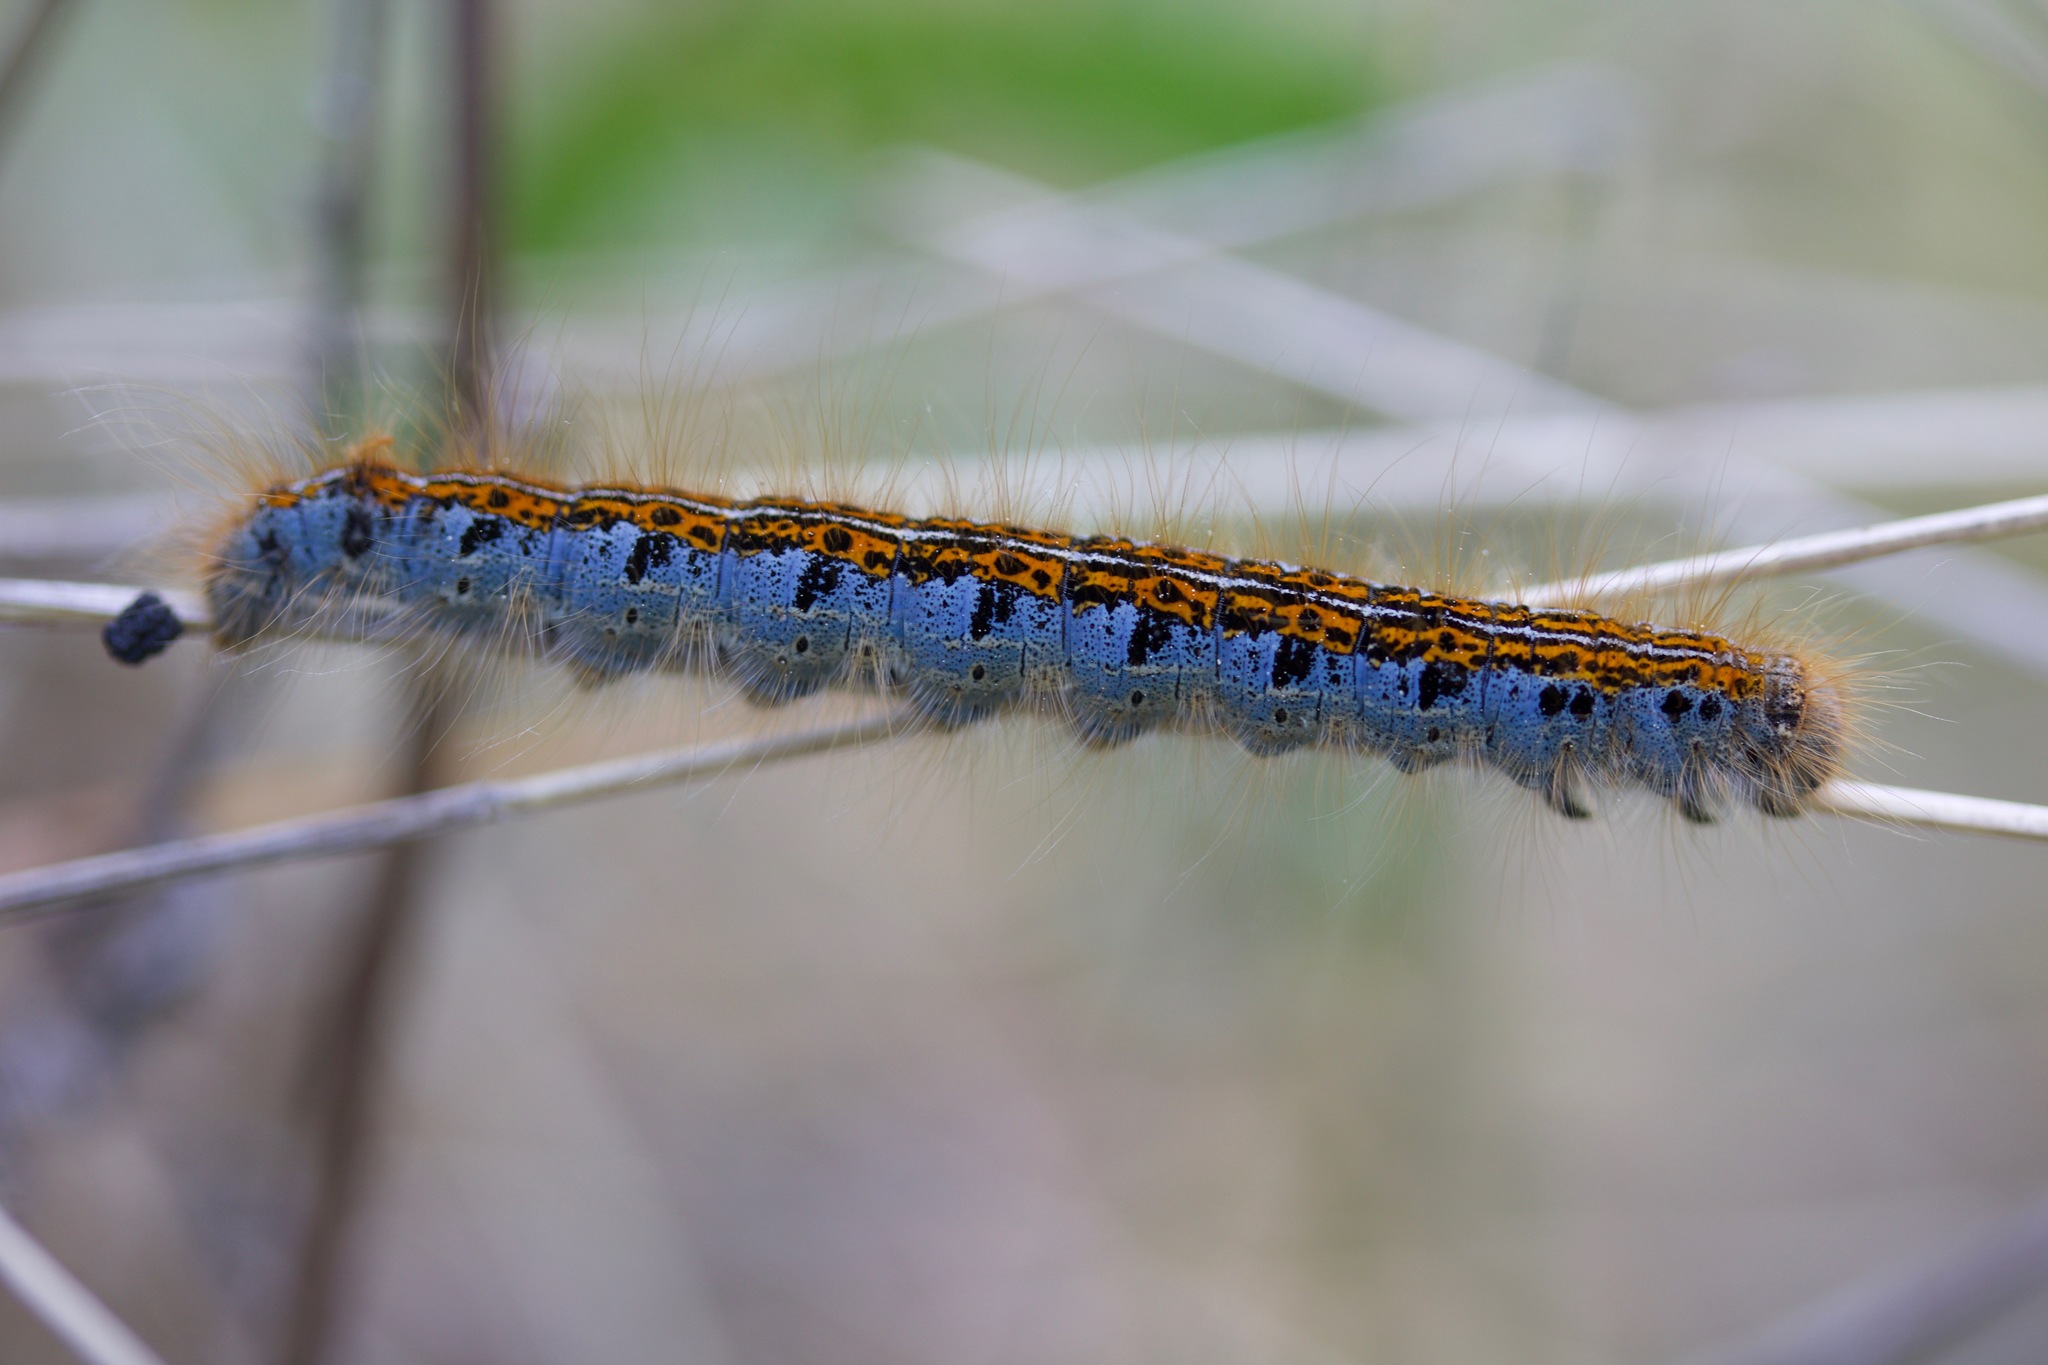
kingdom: Animalia
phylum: Arthropoda
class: Insecta
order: Lepidoptera
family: Lasiocampidae
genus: Malacosoma
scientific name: Malacosoma castrense
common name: Ground lackey
